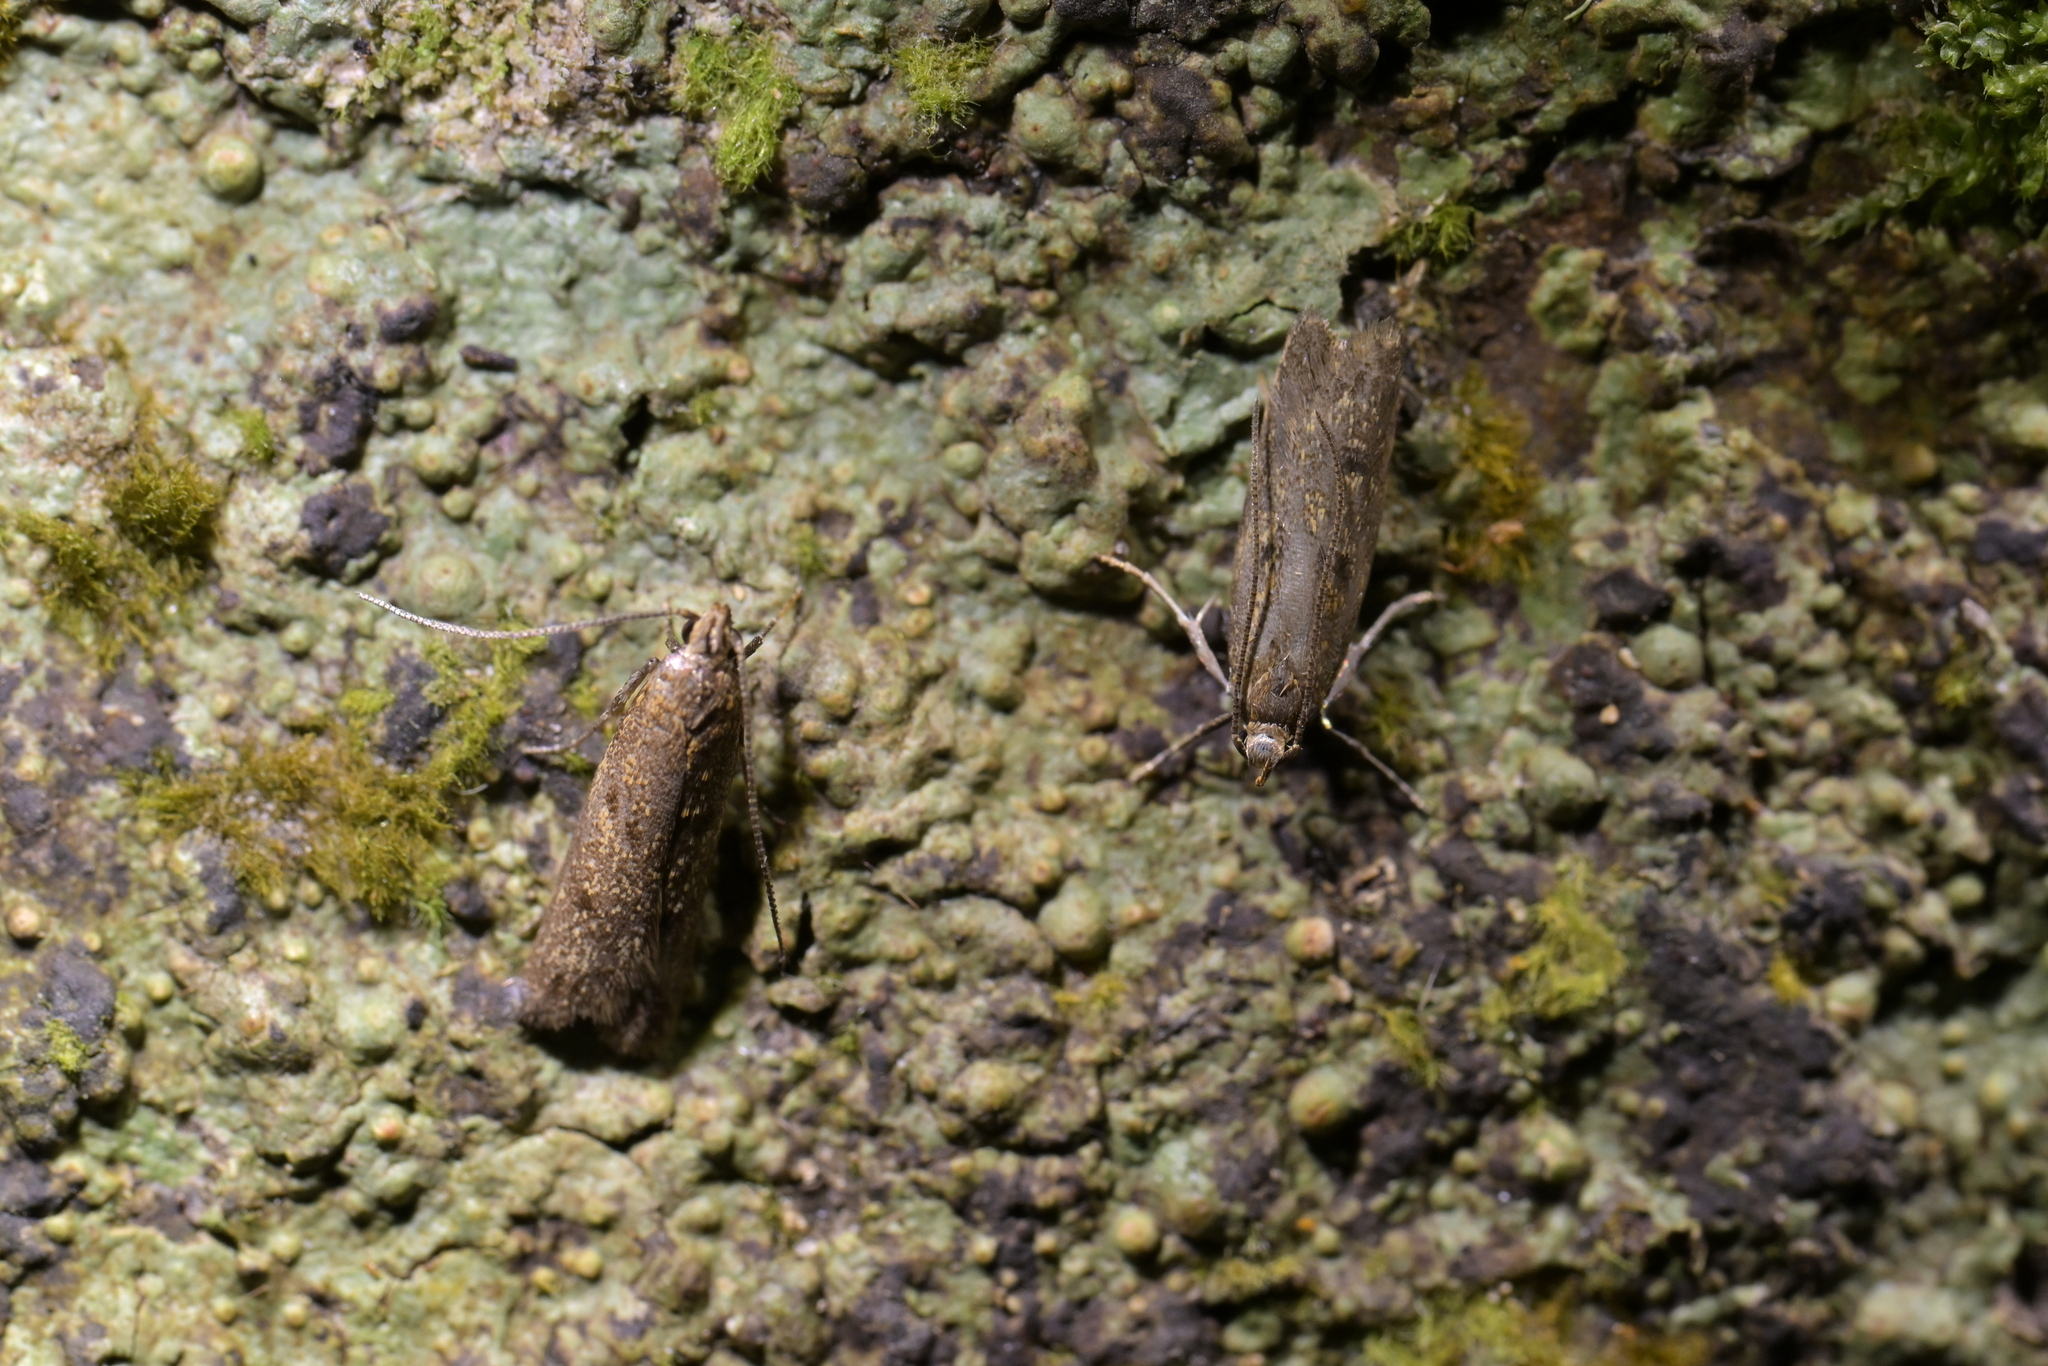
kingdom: Animalia
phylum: Arthropoda
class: Insecta
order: Lepidoptera
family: Oecophoridae
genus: Gymnobathra
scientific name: Gymnobathra tholodella
